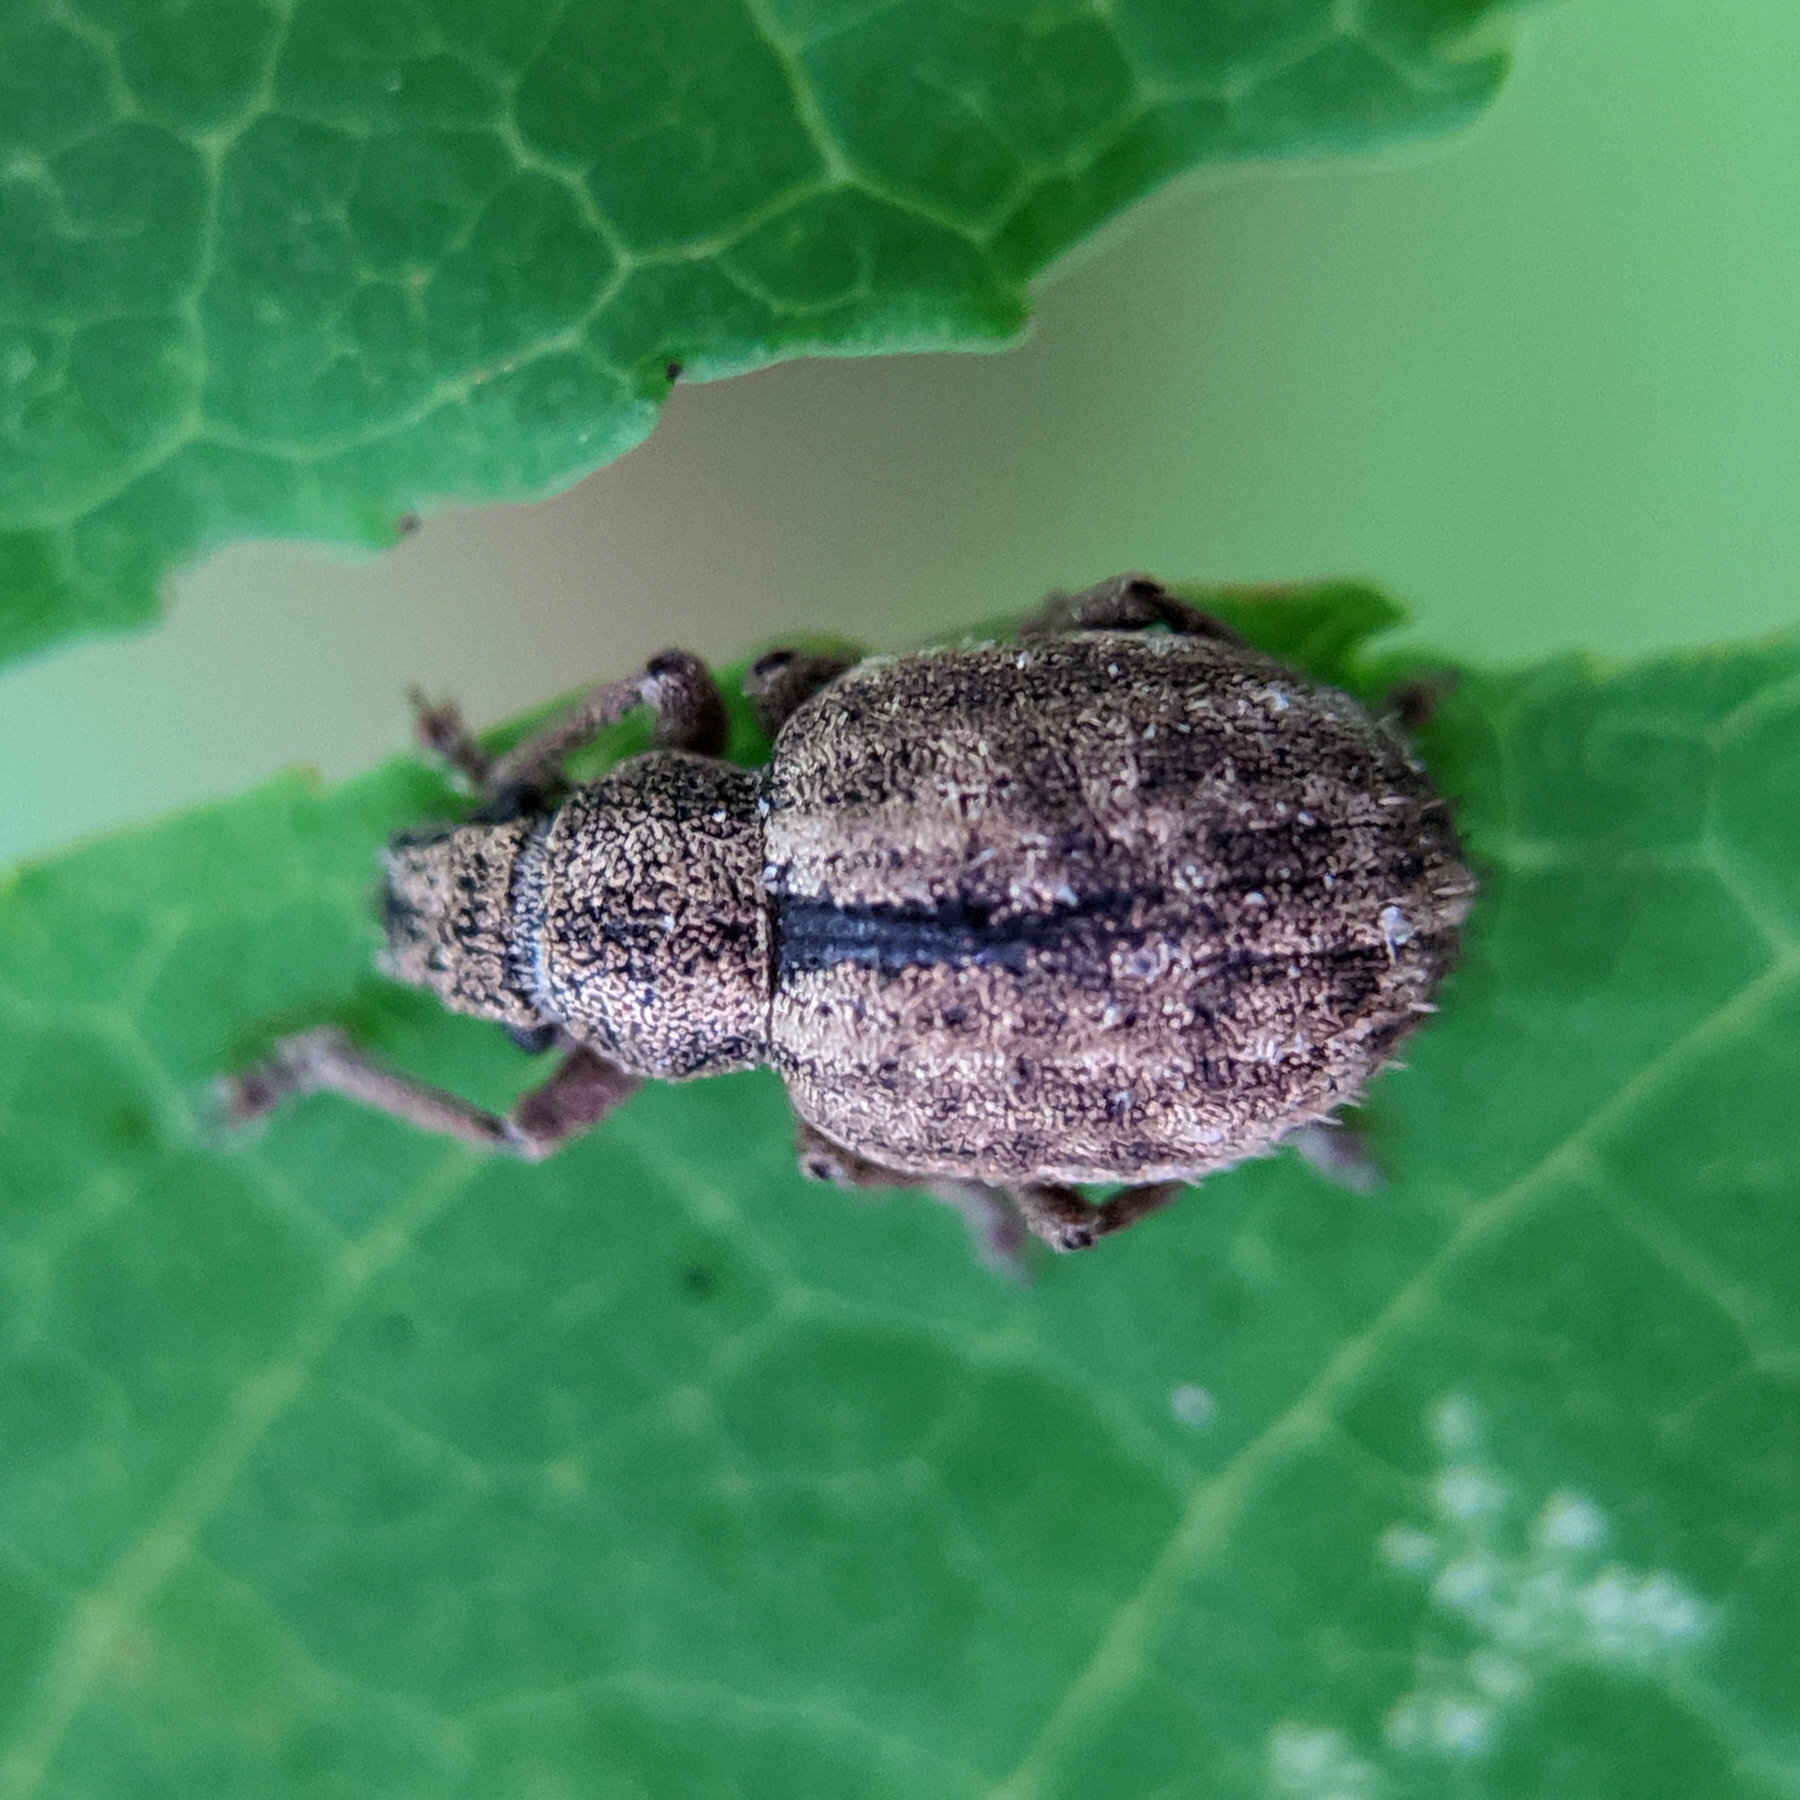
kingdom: Animalia
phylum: Arthropoda
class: Insecta
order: Coleoptera
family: Curculionidae
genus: Strophosoma
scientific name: Strophosoma melanogrammum
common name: Weevil
